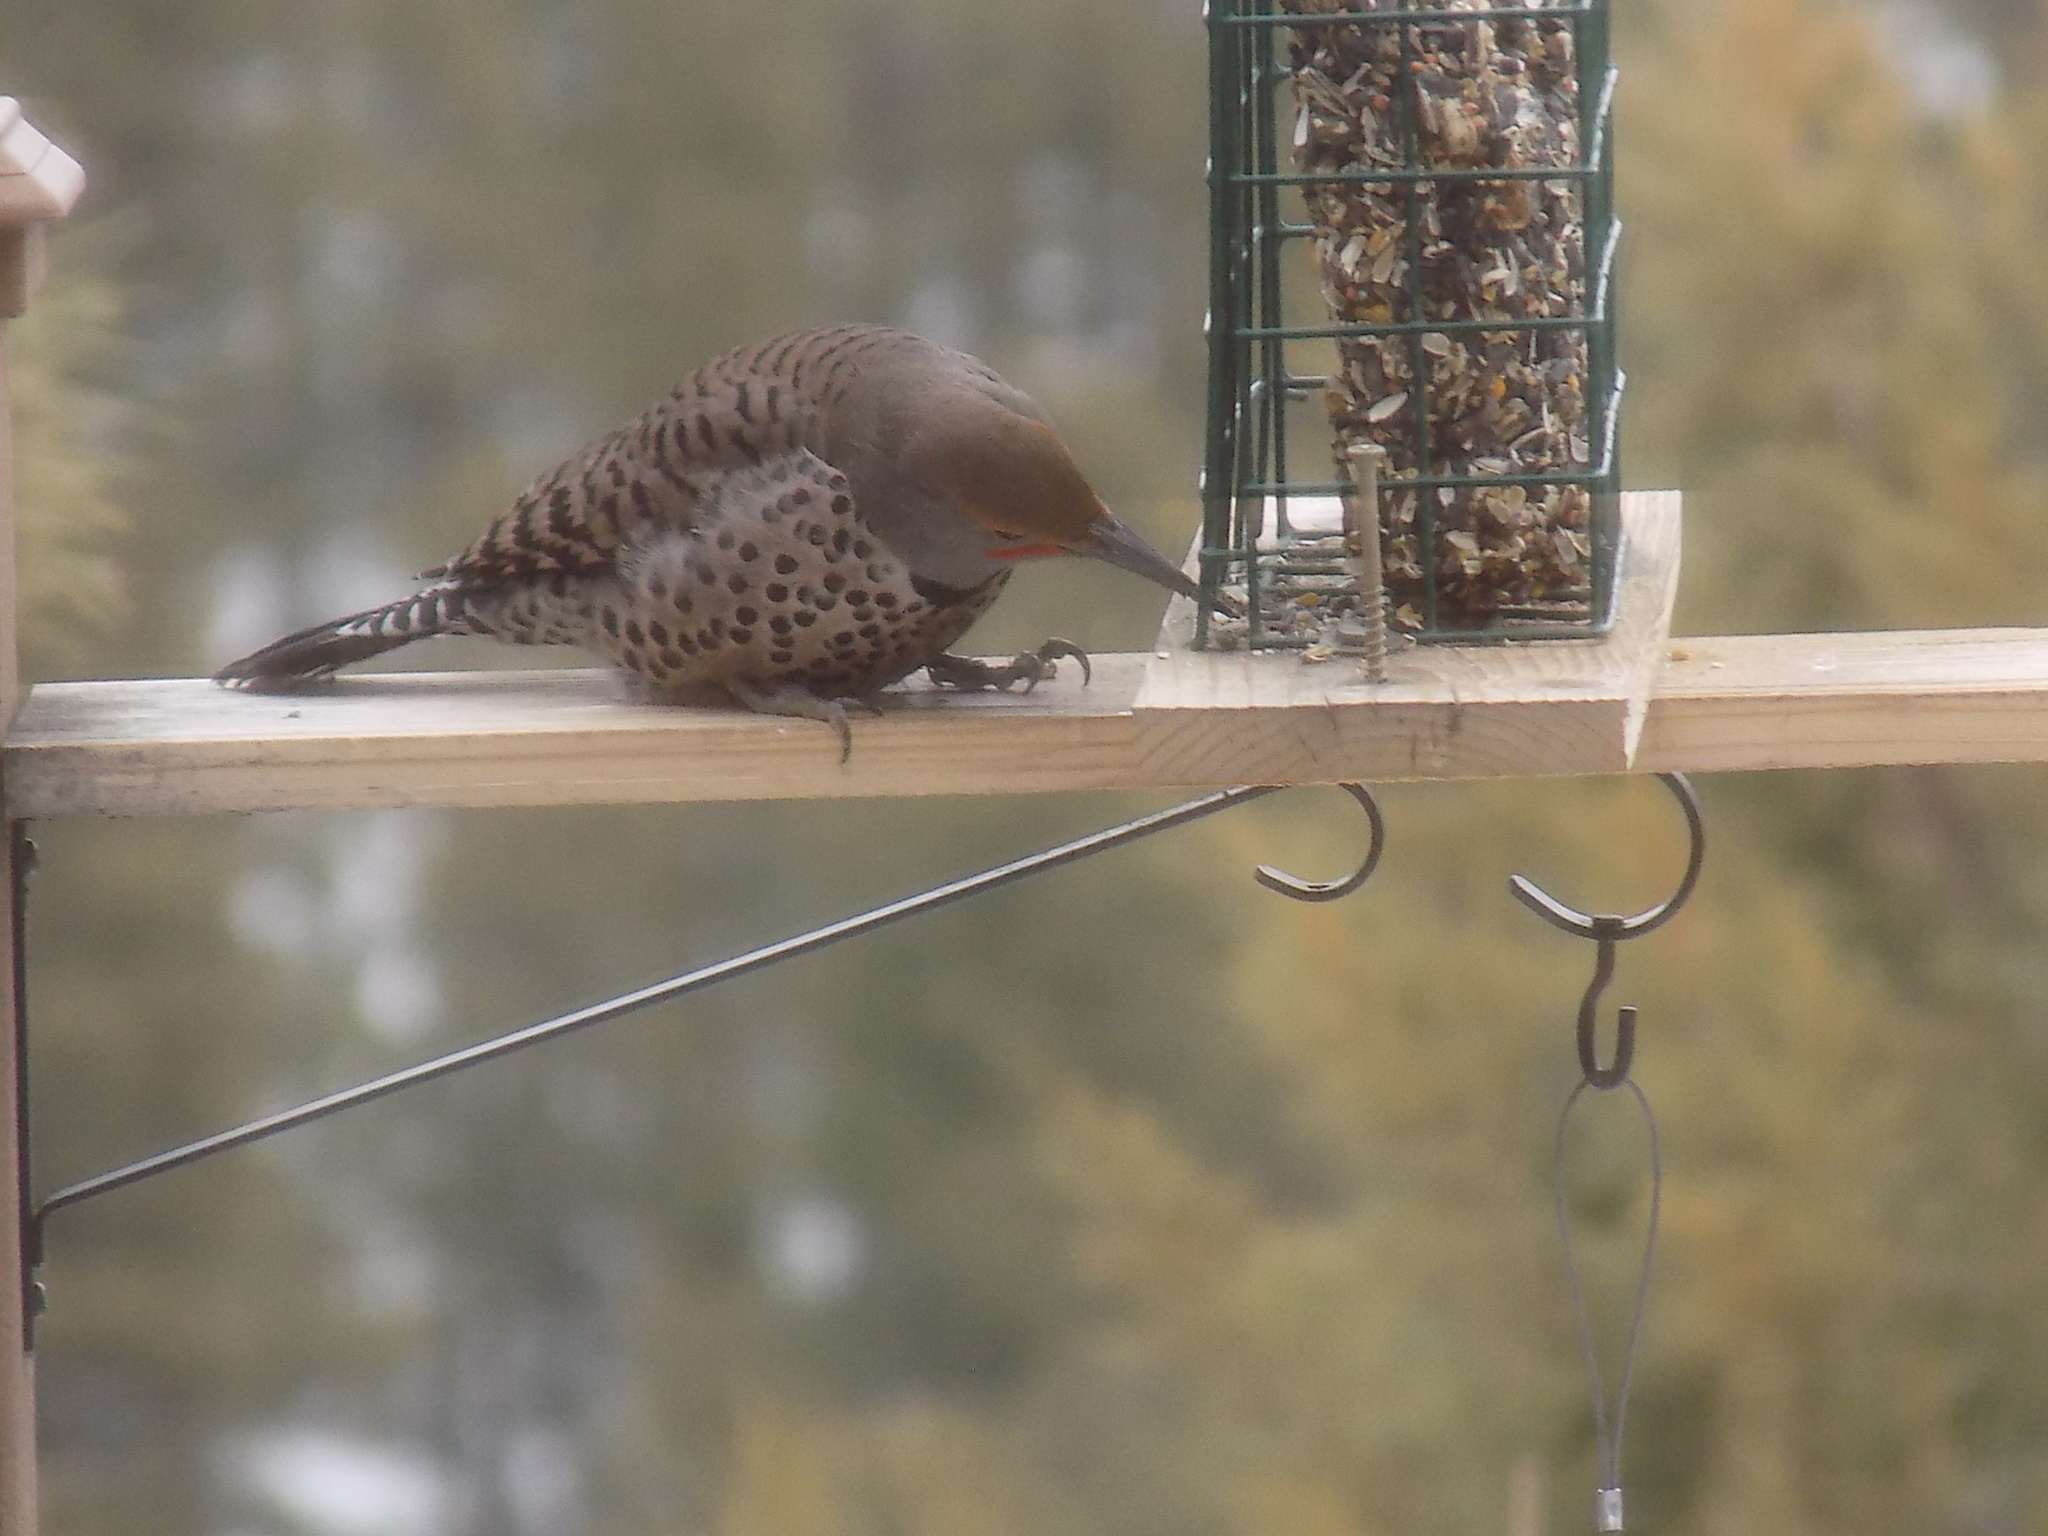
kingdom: Animalia
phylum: Chordata
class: Aves
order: Piciformes
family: Picidae
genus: Colaptes
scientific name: Colaptes auratus
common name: Northern flicker
